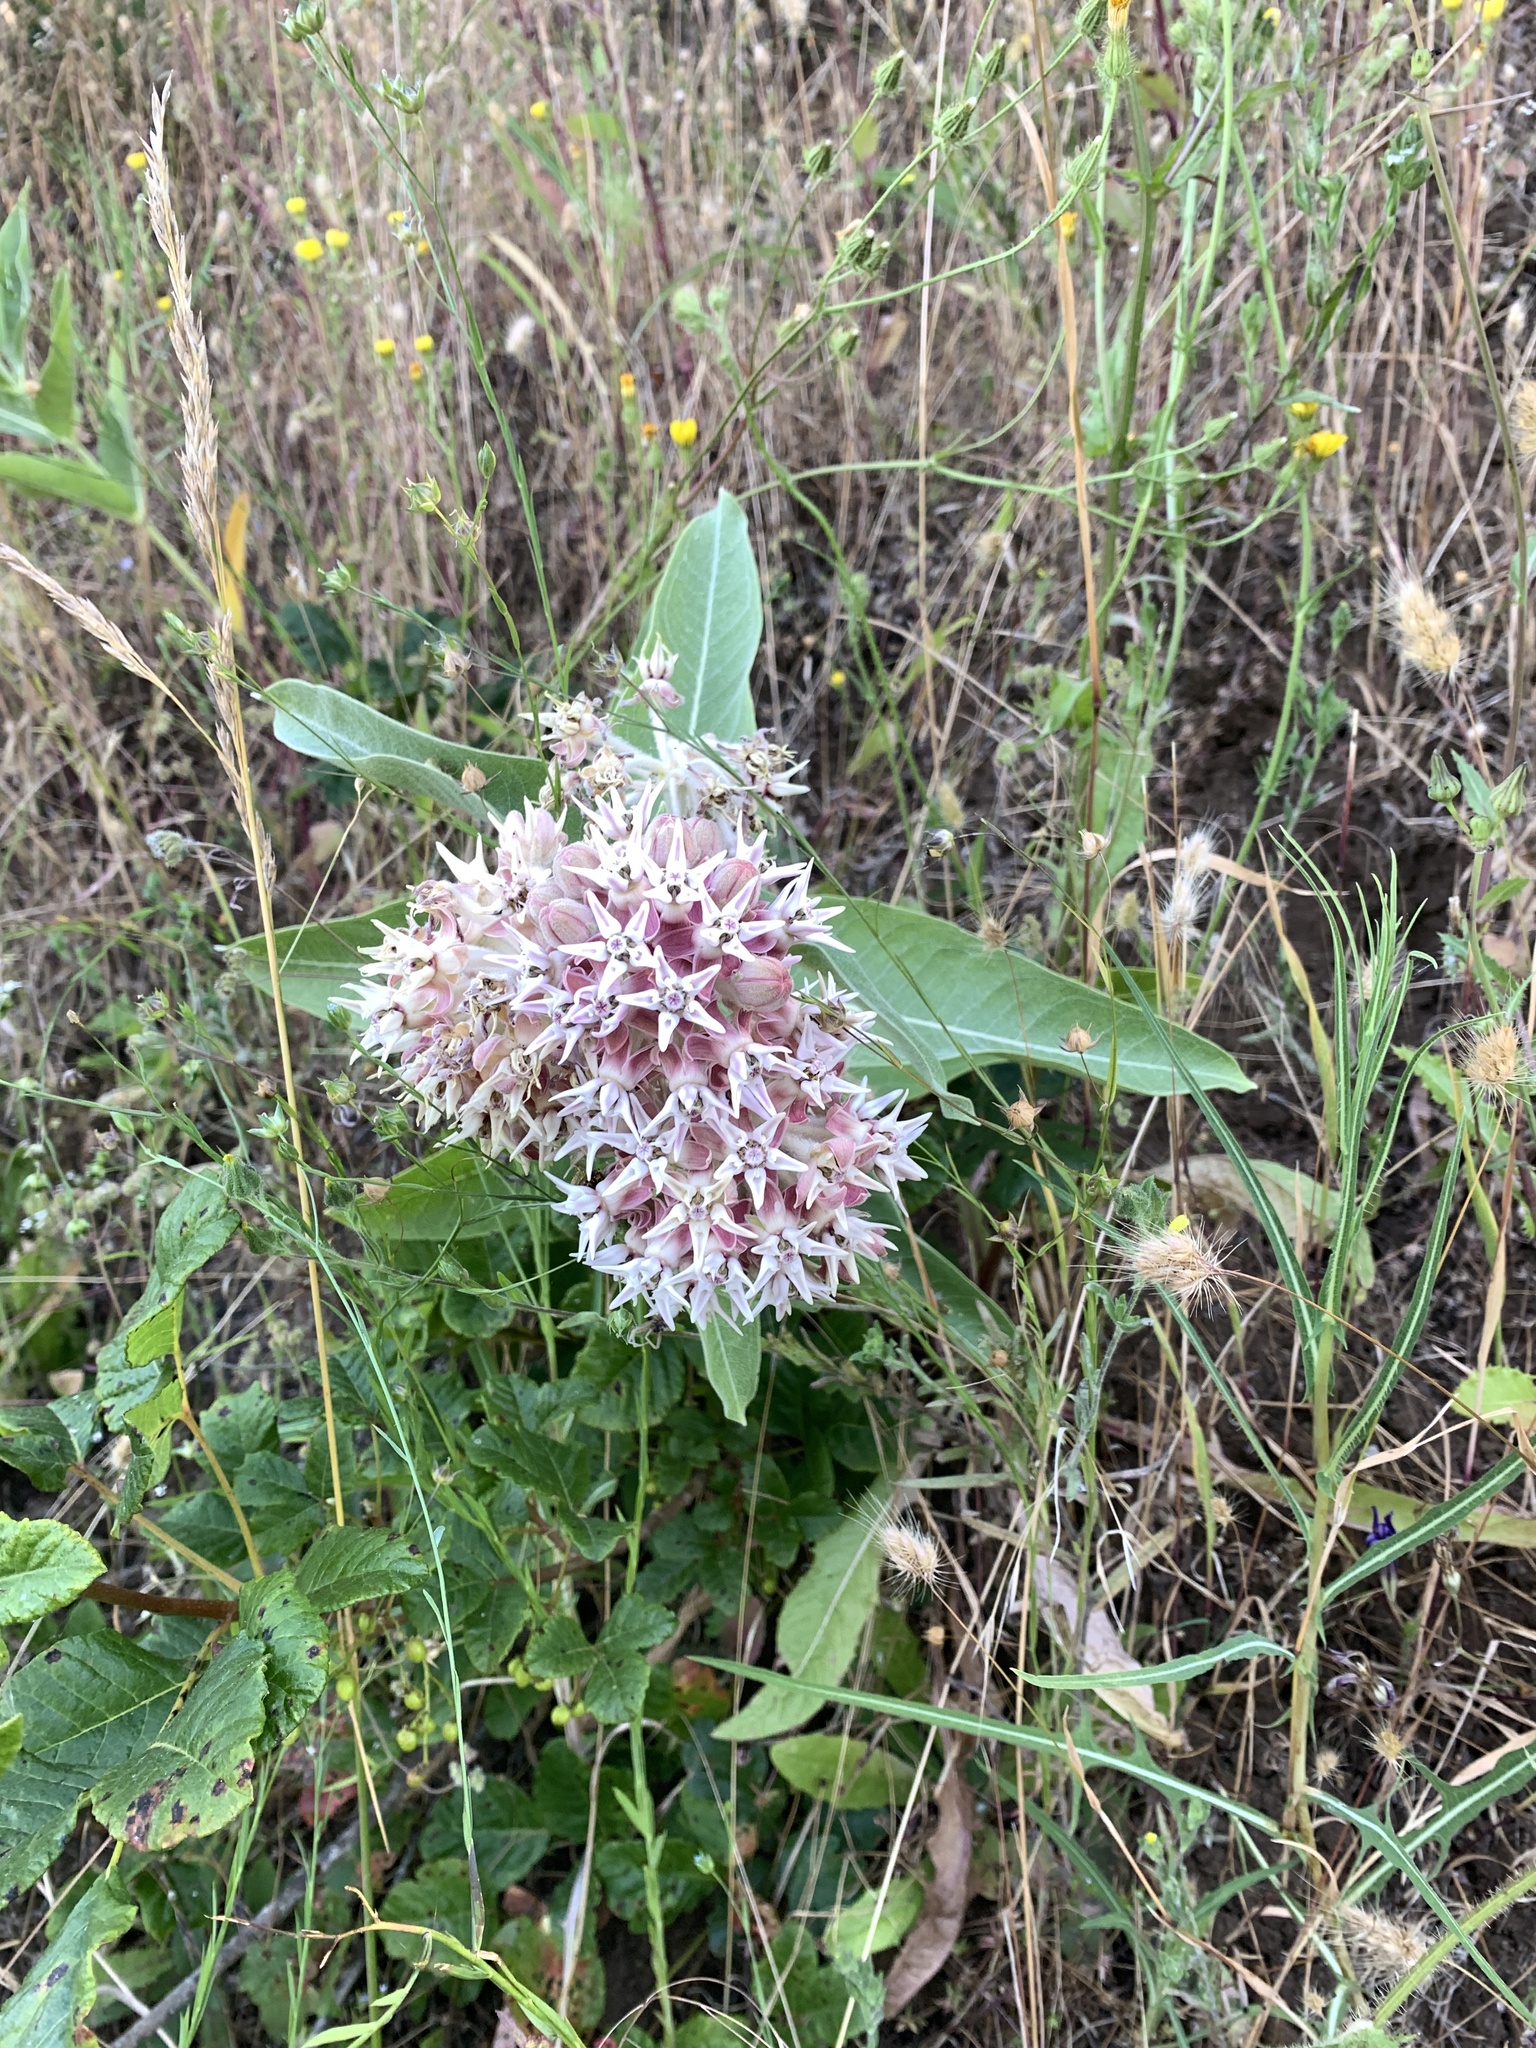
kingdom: Plantae
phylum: Tracheophyta
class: Magnoliopsida
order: Gentianales
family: Apocynaceae
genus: Asclepias
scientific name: Asclepias speciosa
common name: Showy milkweed
